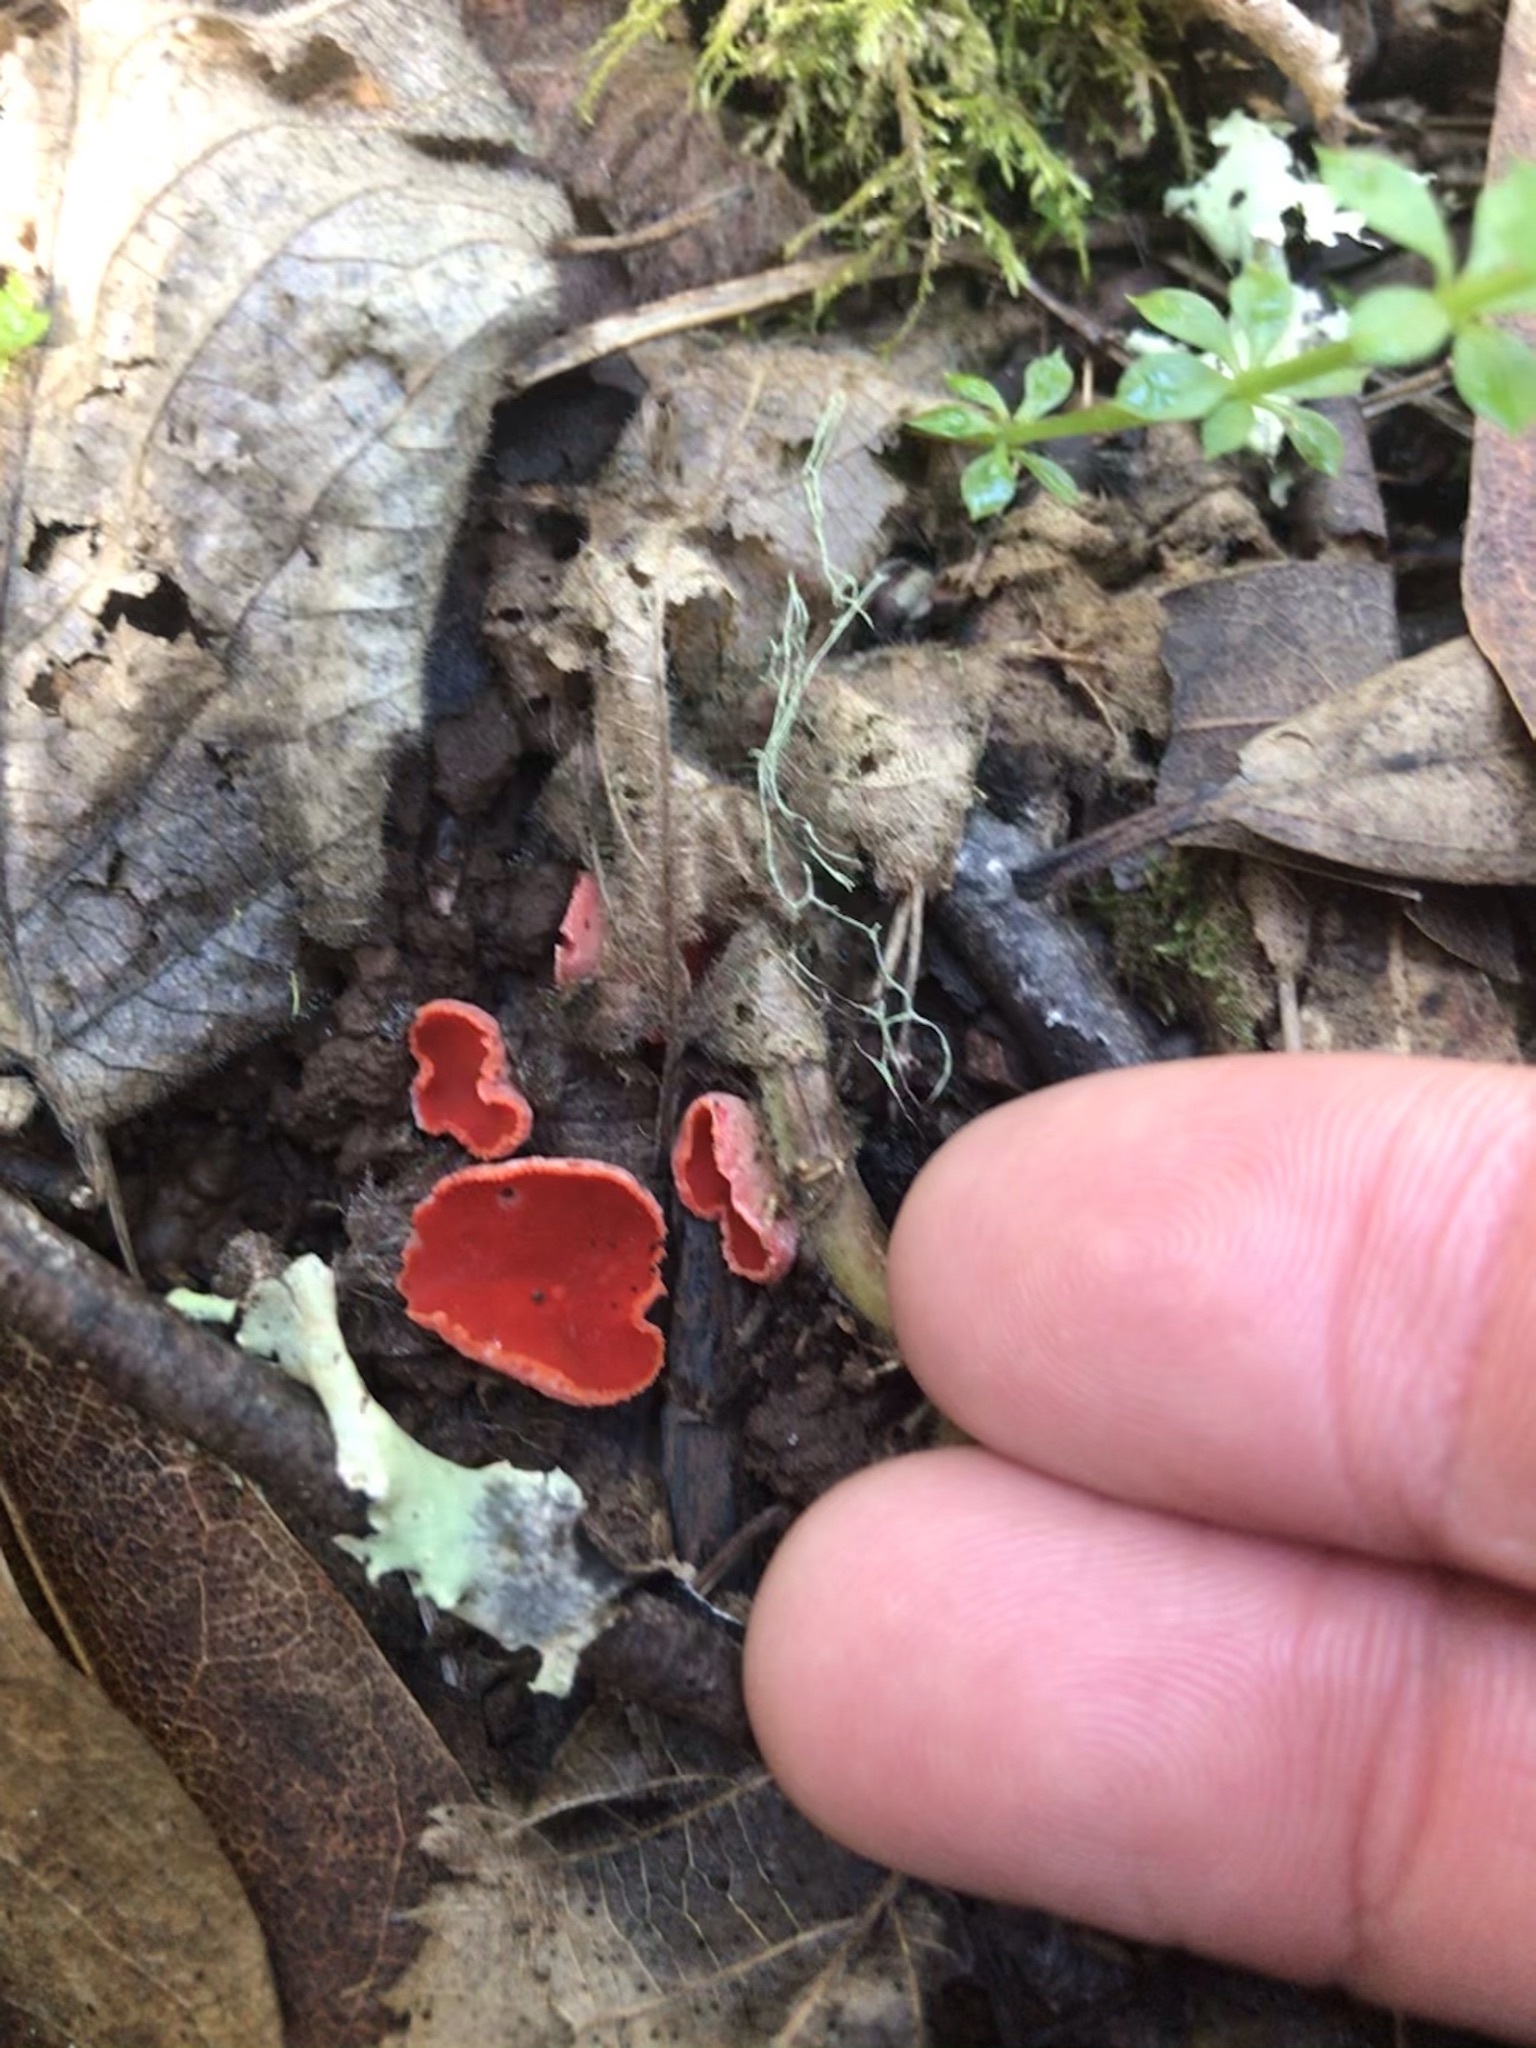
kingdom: Fungi
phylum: Ascomycota
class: Pezizomycetes
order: Pezizales
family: Sarcoscyphaceae
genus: Sarcoscypha
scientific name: Sarcoscypha coccinea
